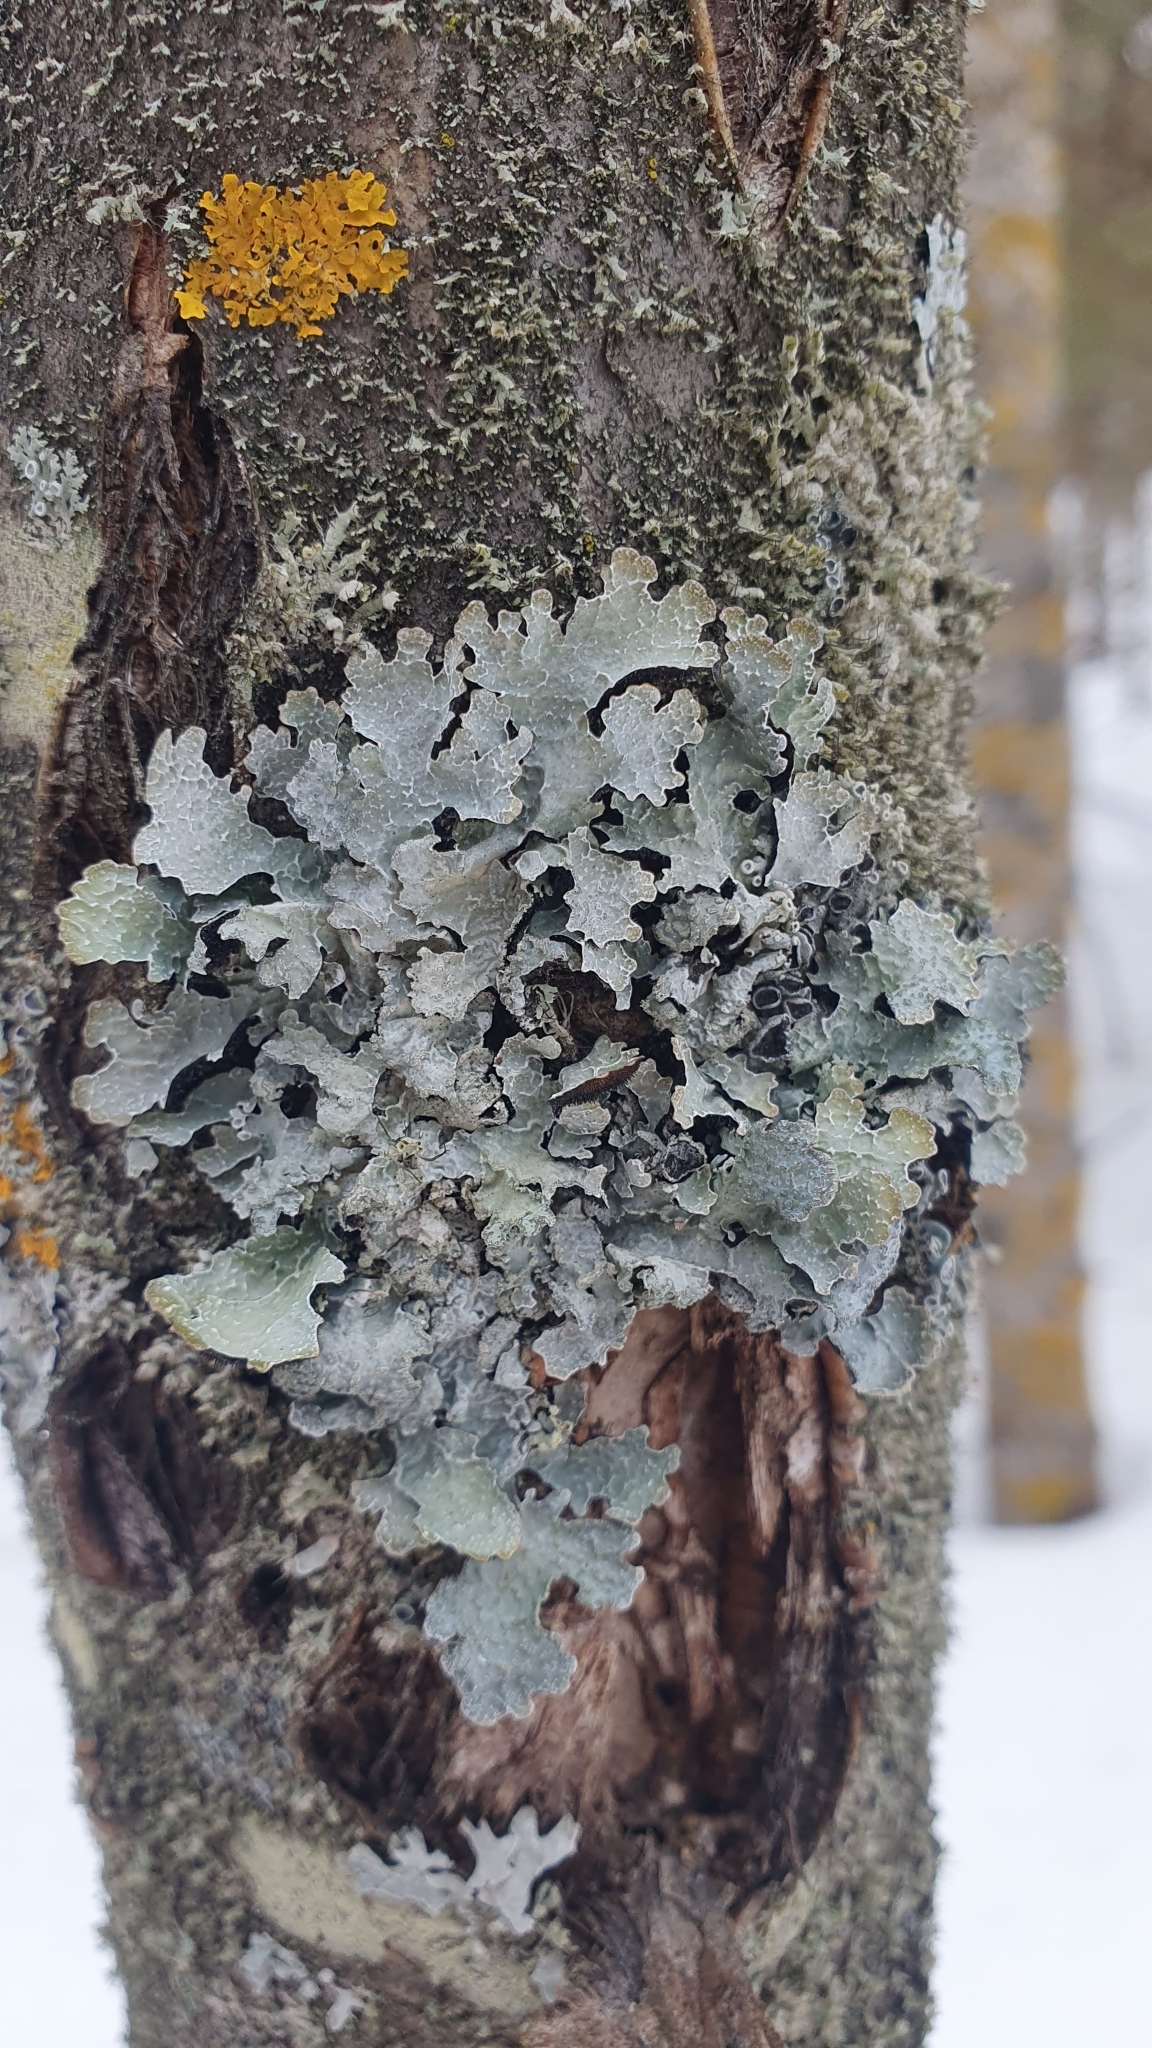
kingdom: Fungi
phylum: Ascomycota
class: Lecanoromycetes
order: Lecanorales
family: Parmeliaceae
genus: Parmelia
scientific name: Parmelia sulcata
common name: Netted shield lichen
